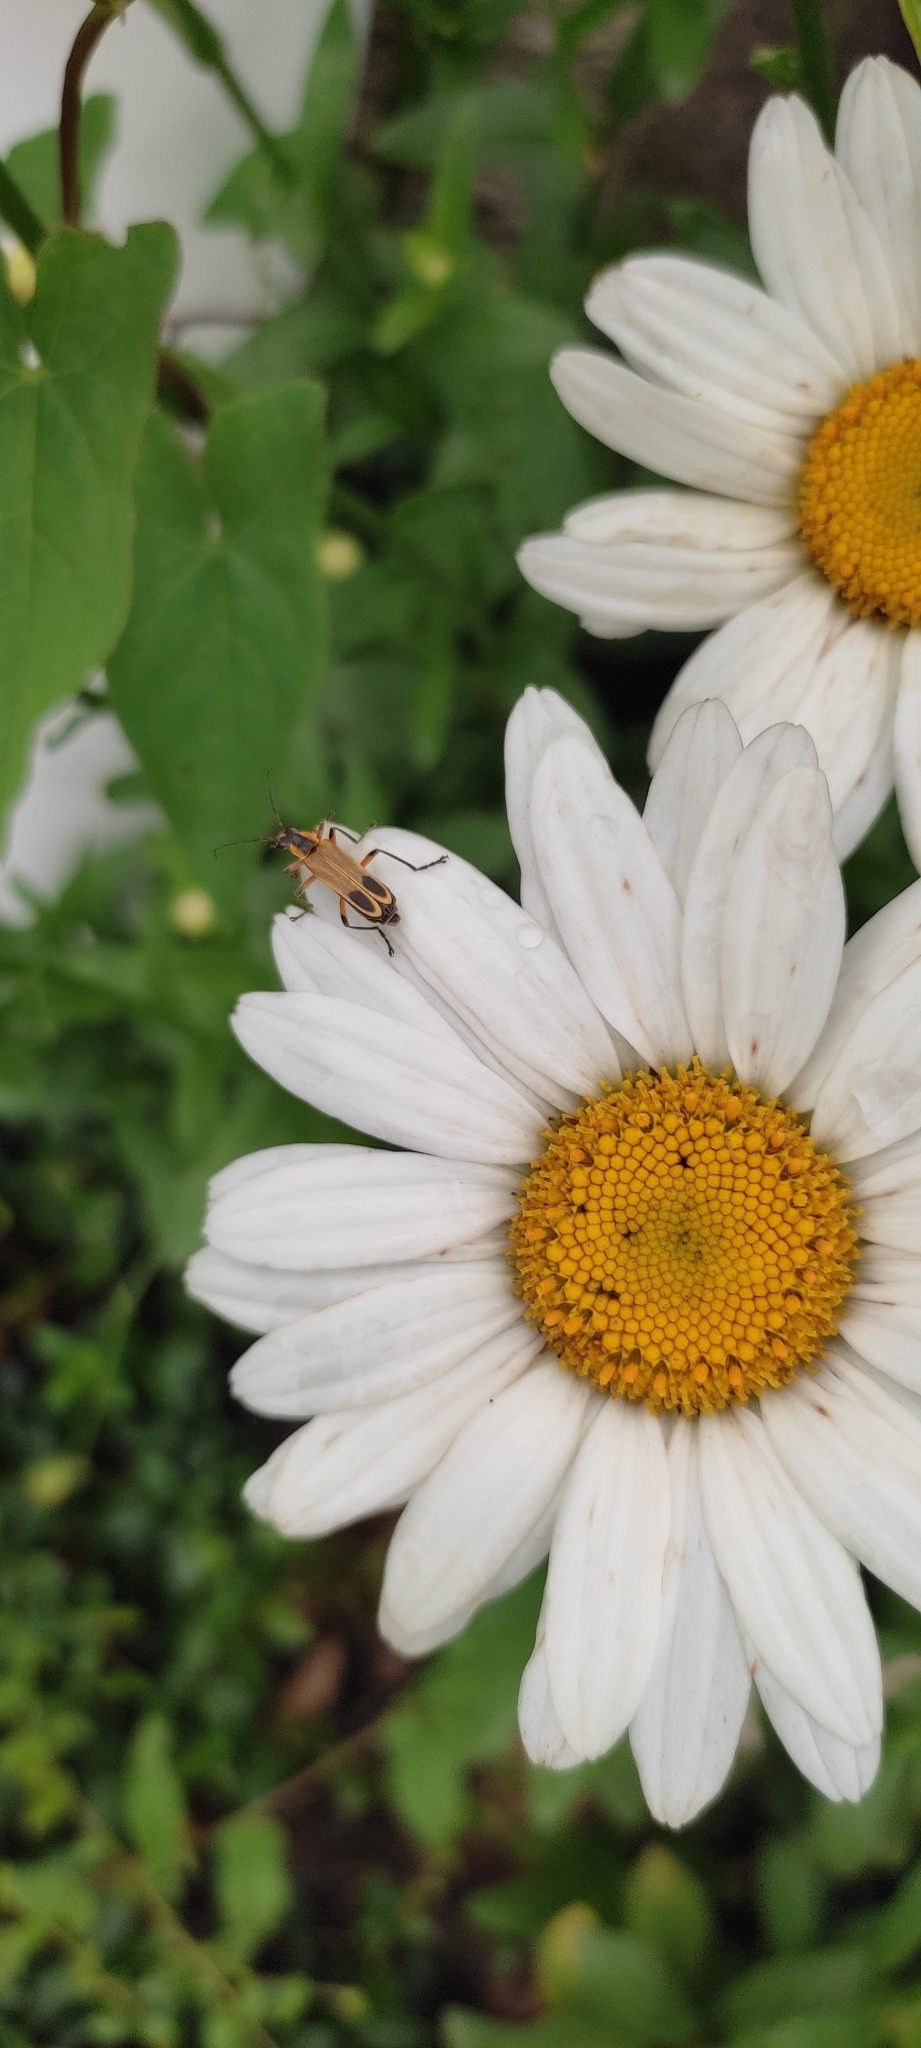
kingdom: Animalia
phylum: Arthropoda
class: Insecta
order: Coleoptera
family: Cantharidae
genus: Chauliognathus
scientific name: Chauliognathus marginatus
